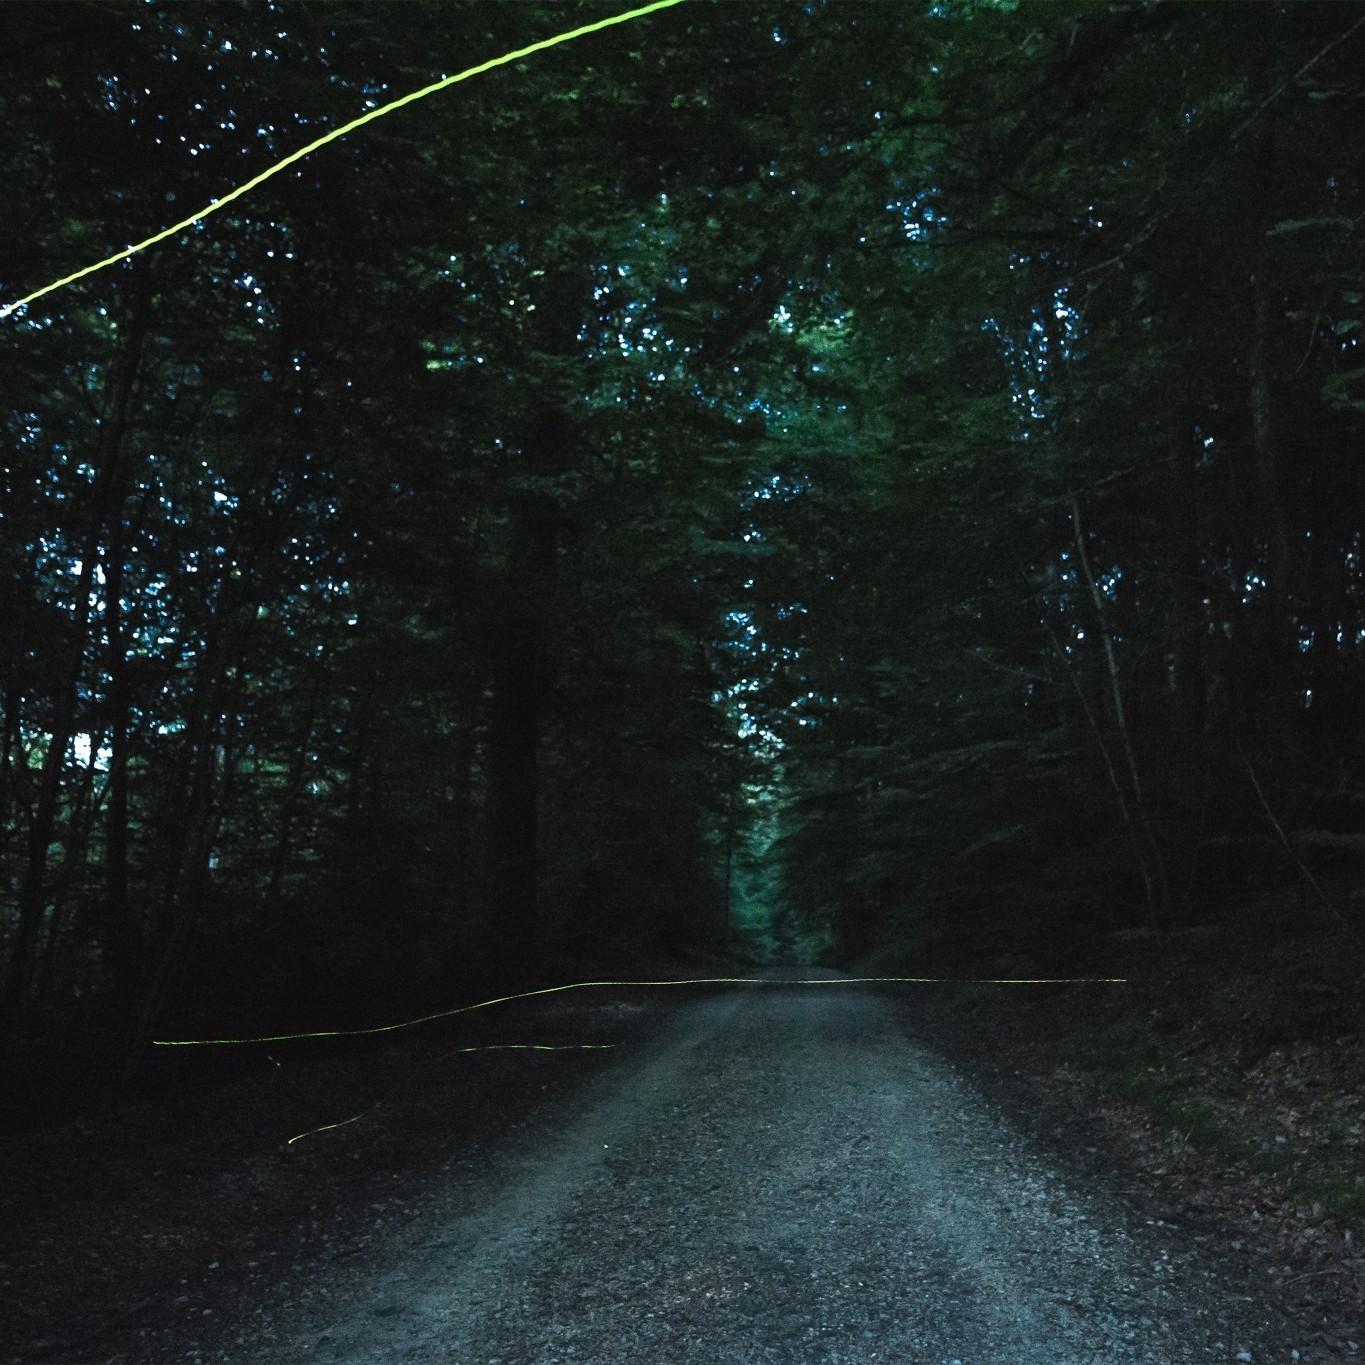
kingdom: Animalia
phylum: Arthropoda
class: Insecta
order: Coleoptera
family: Lampyridae
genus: Lamprohiza
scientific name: Lamprohiza splendidula
